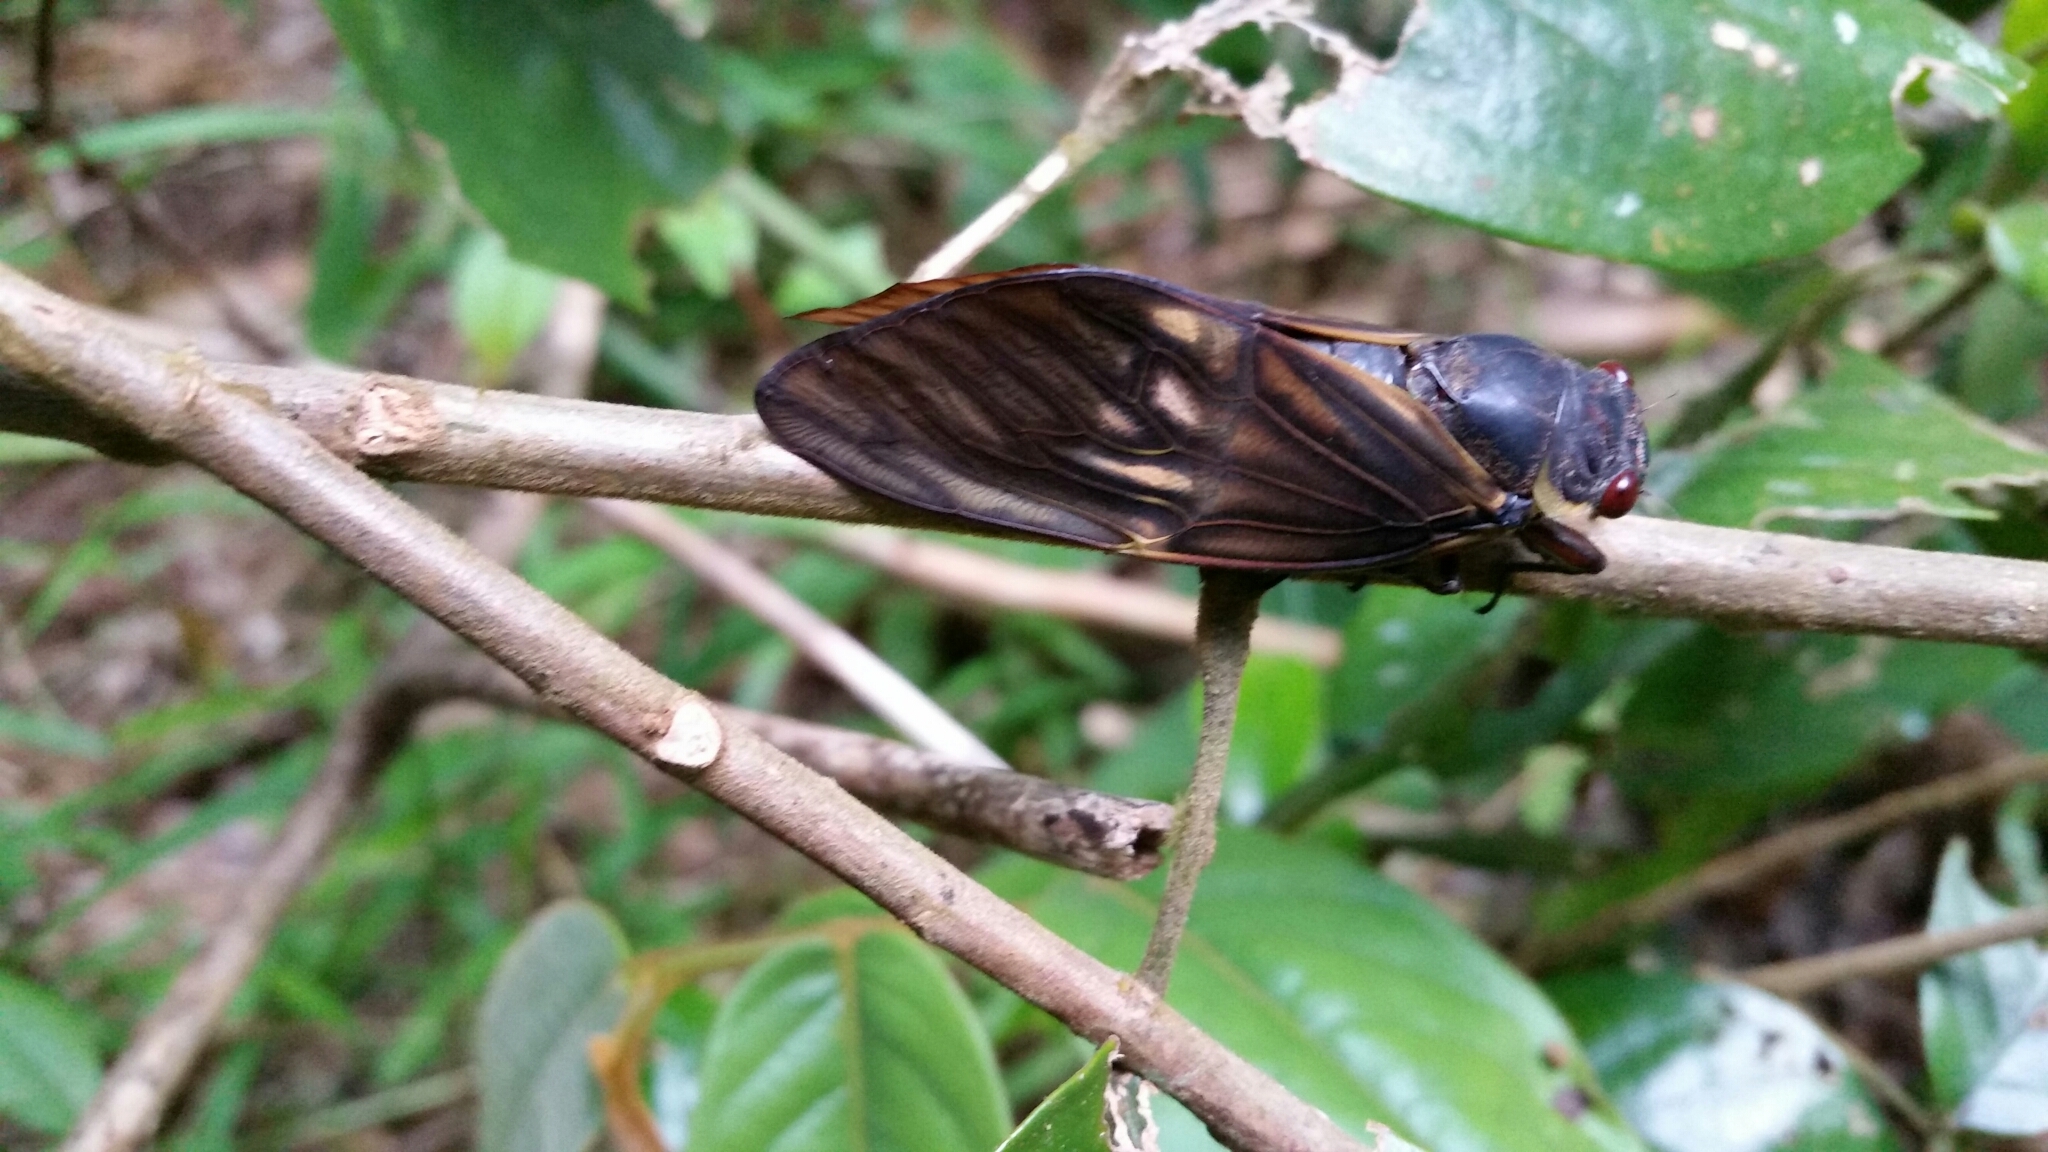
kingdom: Animalia
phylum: Arthropoda
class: Insecta
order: Hemiptera
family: Cicadidae
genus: Becquartina
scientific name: Becquartina versicolor
